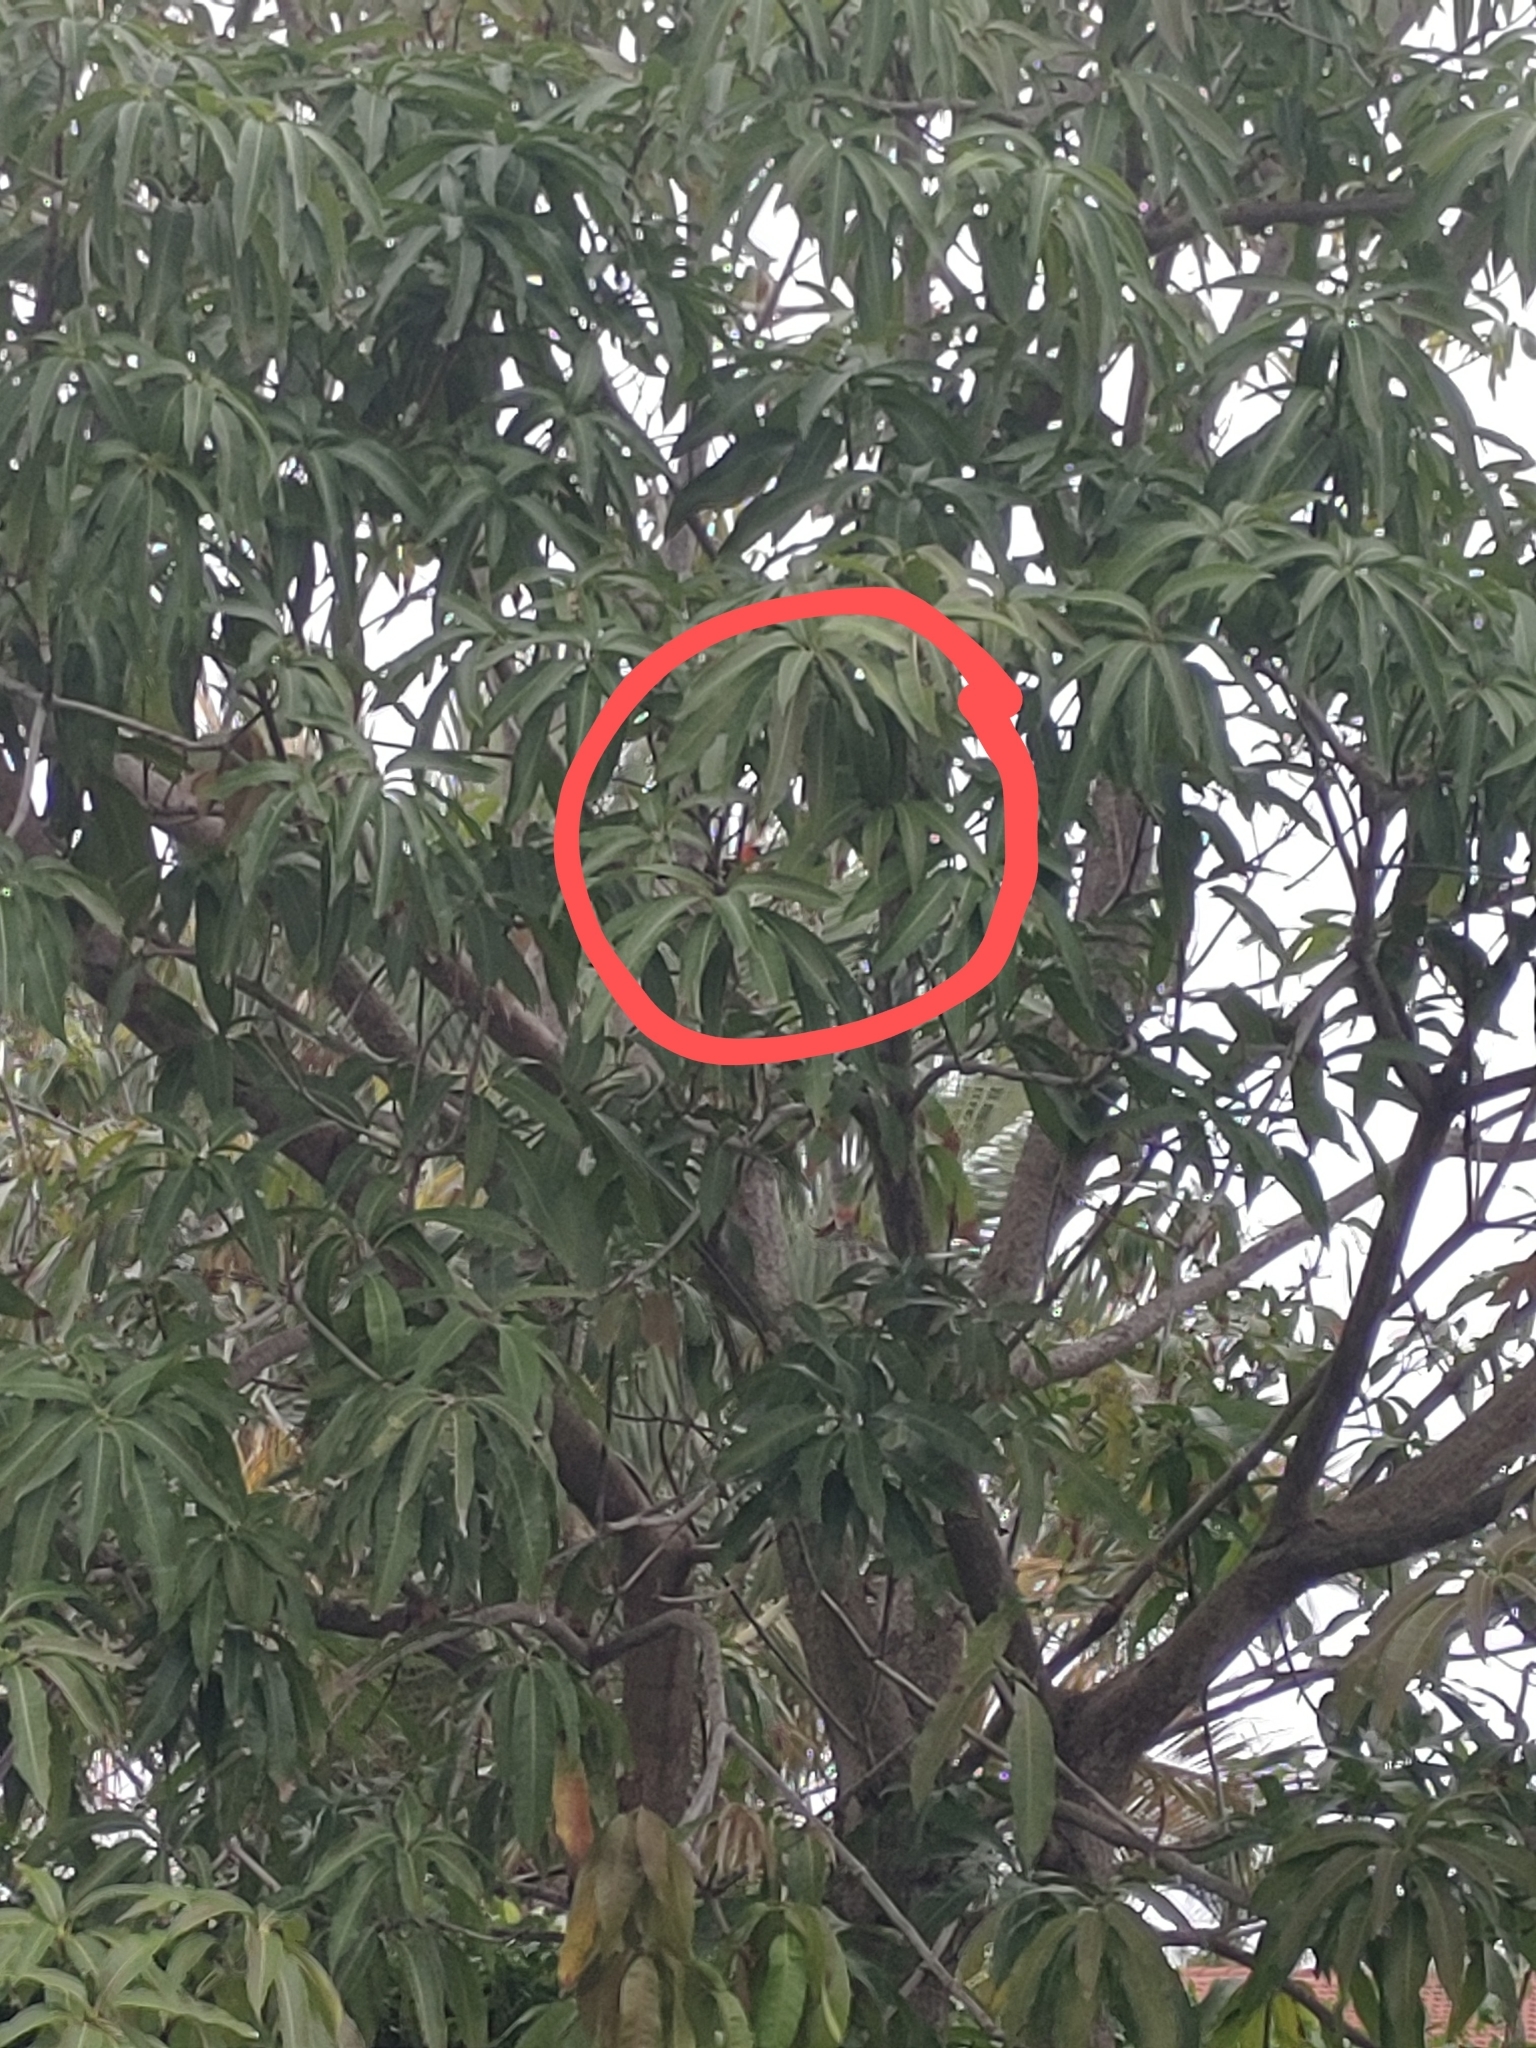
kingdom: Animalia
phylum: Chordata
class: Aves
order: Passeriformes
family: Icteridae
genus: Icterus
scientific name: Icterus pectoralis
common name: Spot-breasted oriole
